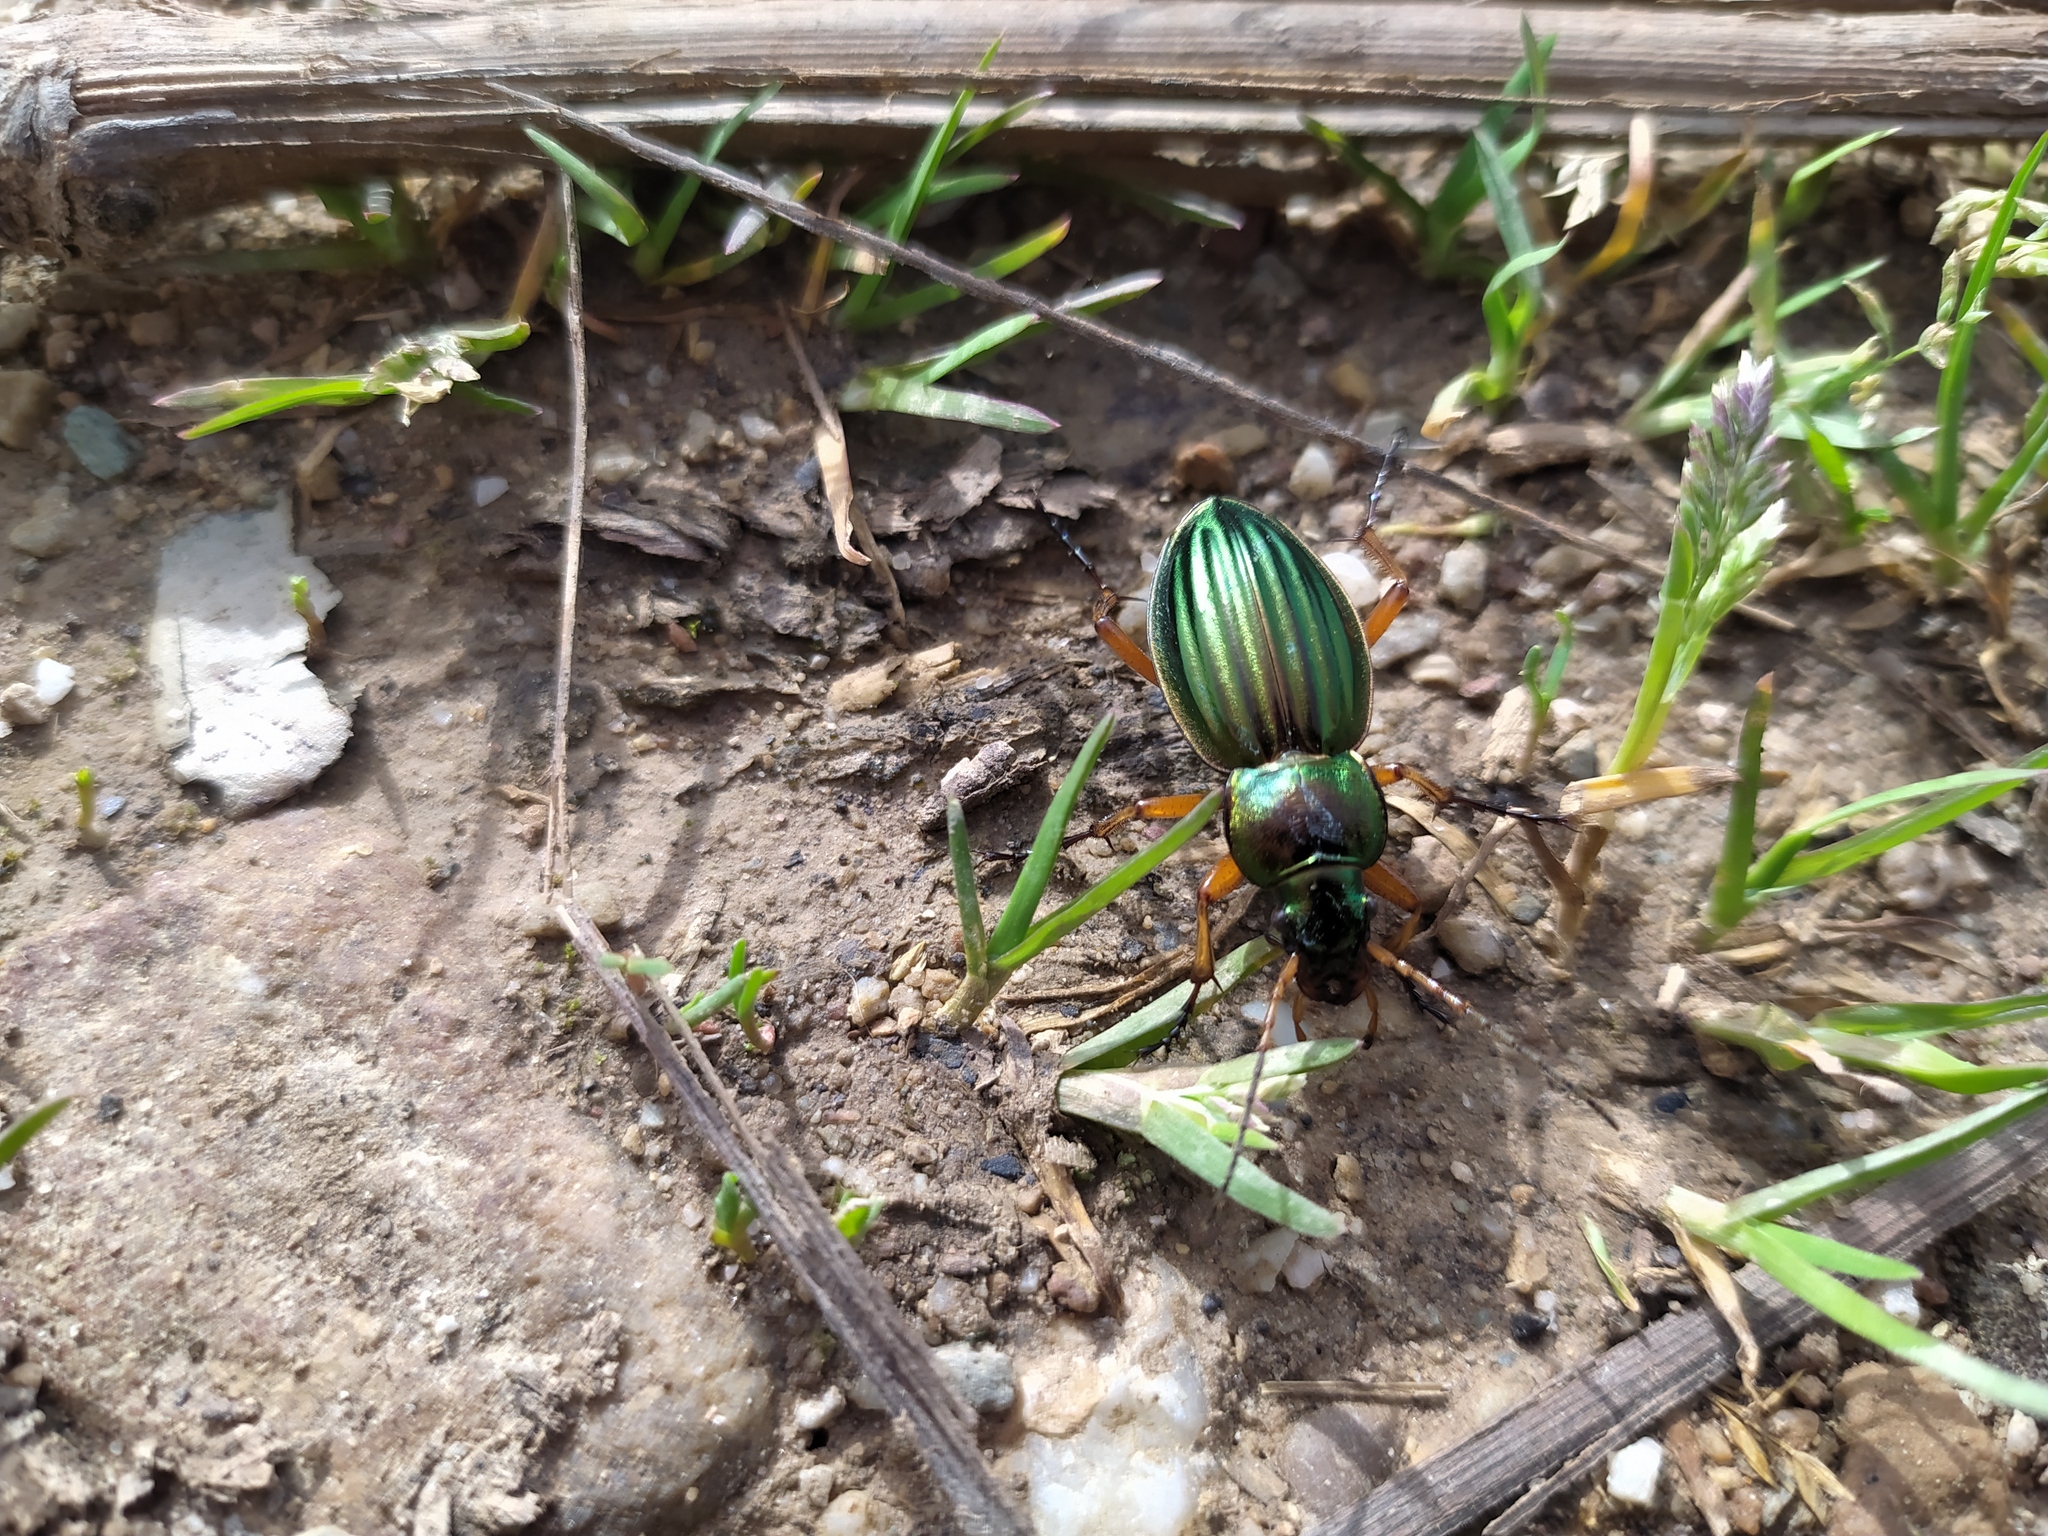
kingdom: Animalia
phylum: Arthropoda
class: Insecta
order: Coleoptera
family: Carabidae
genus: Carabus
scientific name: Carabus auratus
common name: Golden ground beetle
